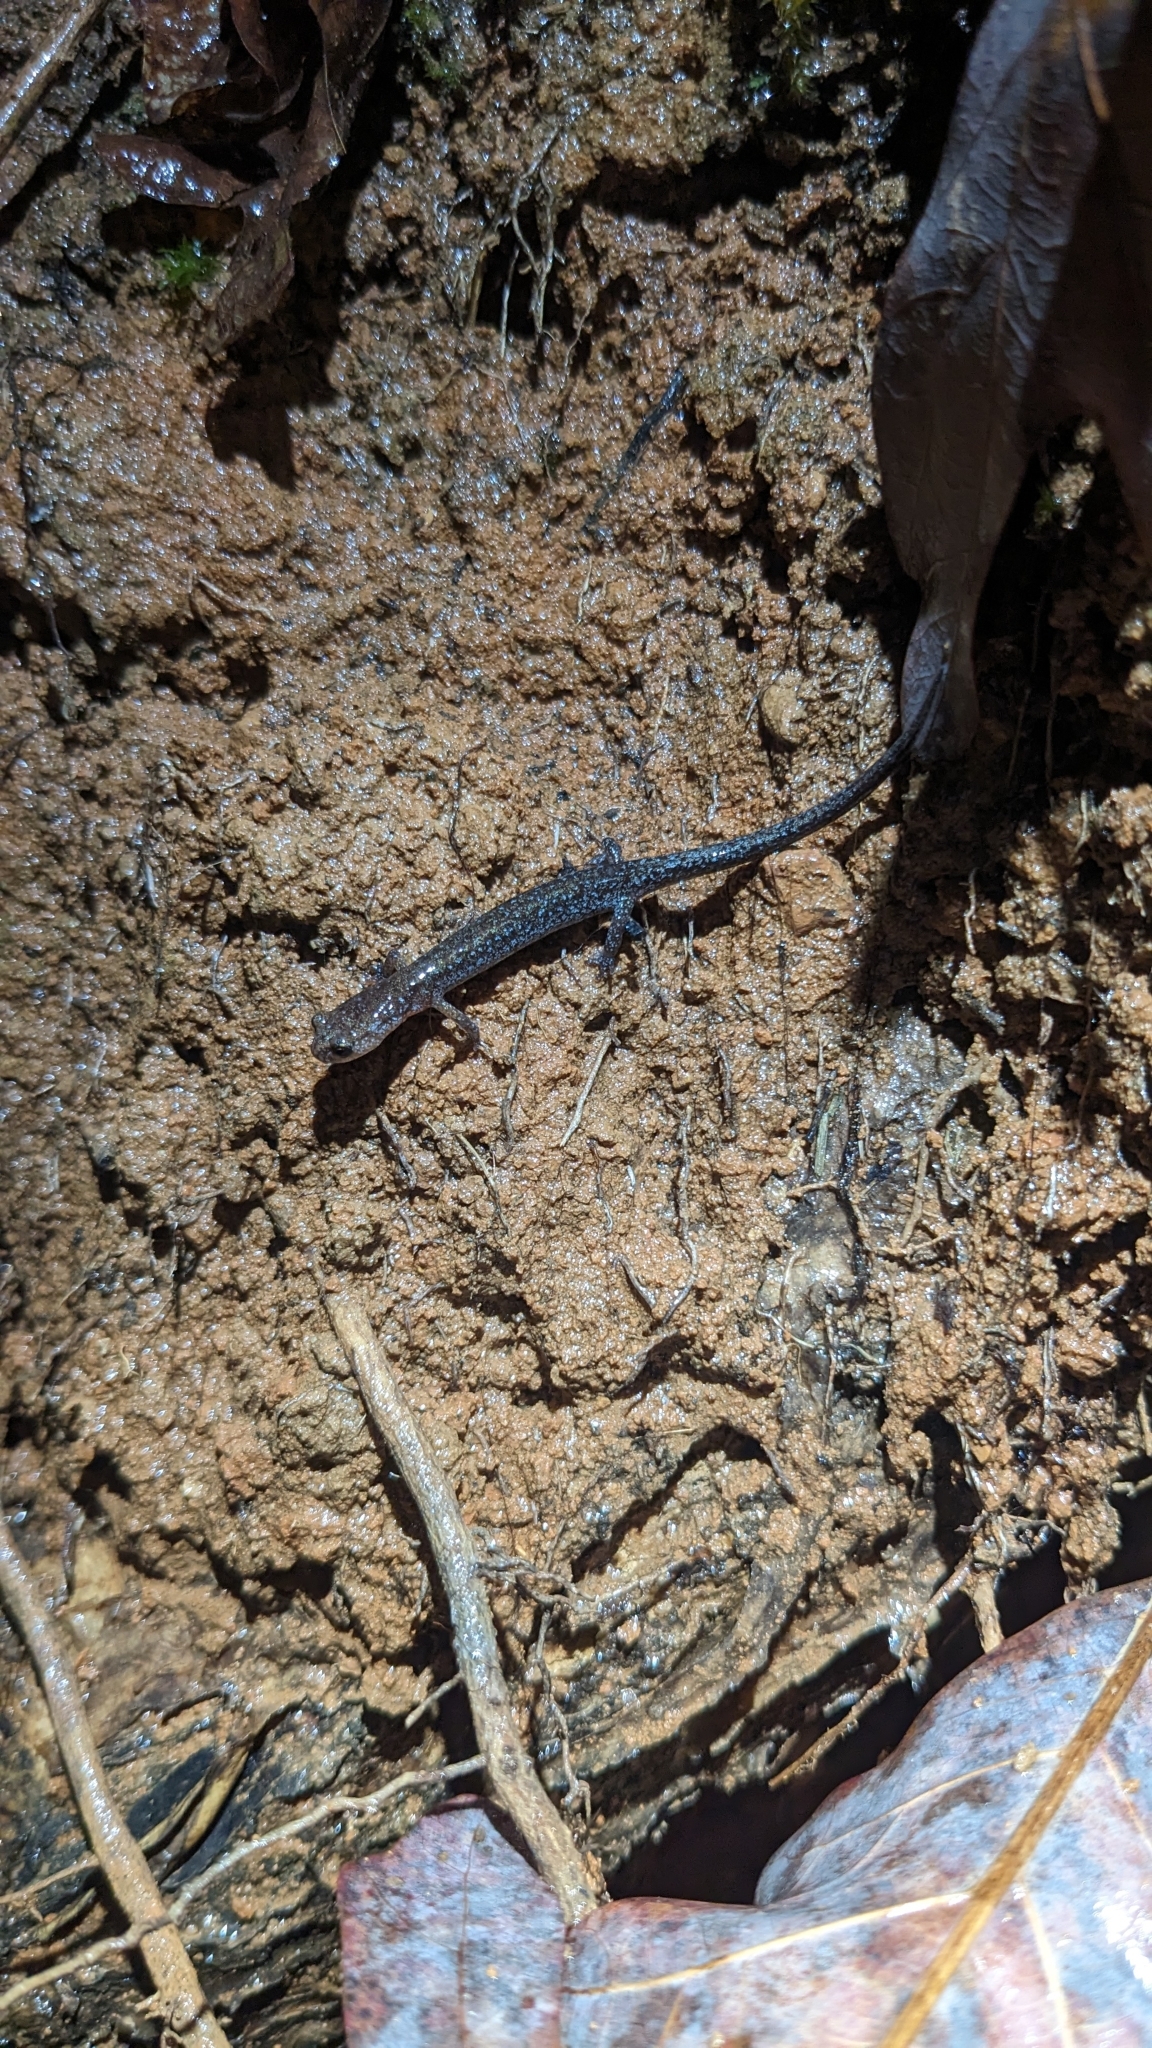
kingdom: Animalia
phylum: Chordata
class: Amphibia
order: Caudata
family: Plethodontidae
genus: Plethodon
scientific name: Plethodon ventralis
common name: Southern zigzag salamander
